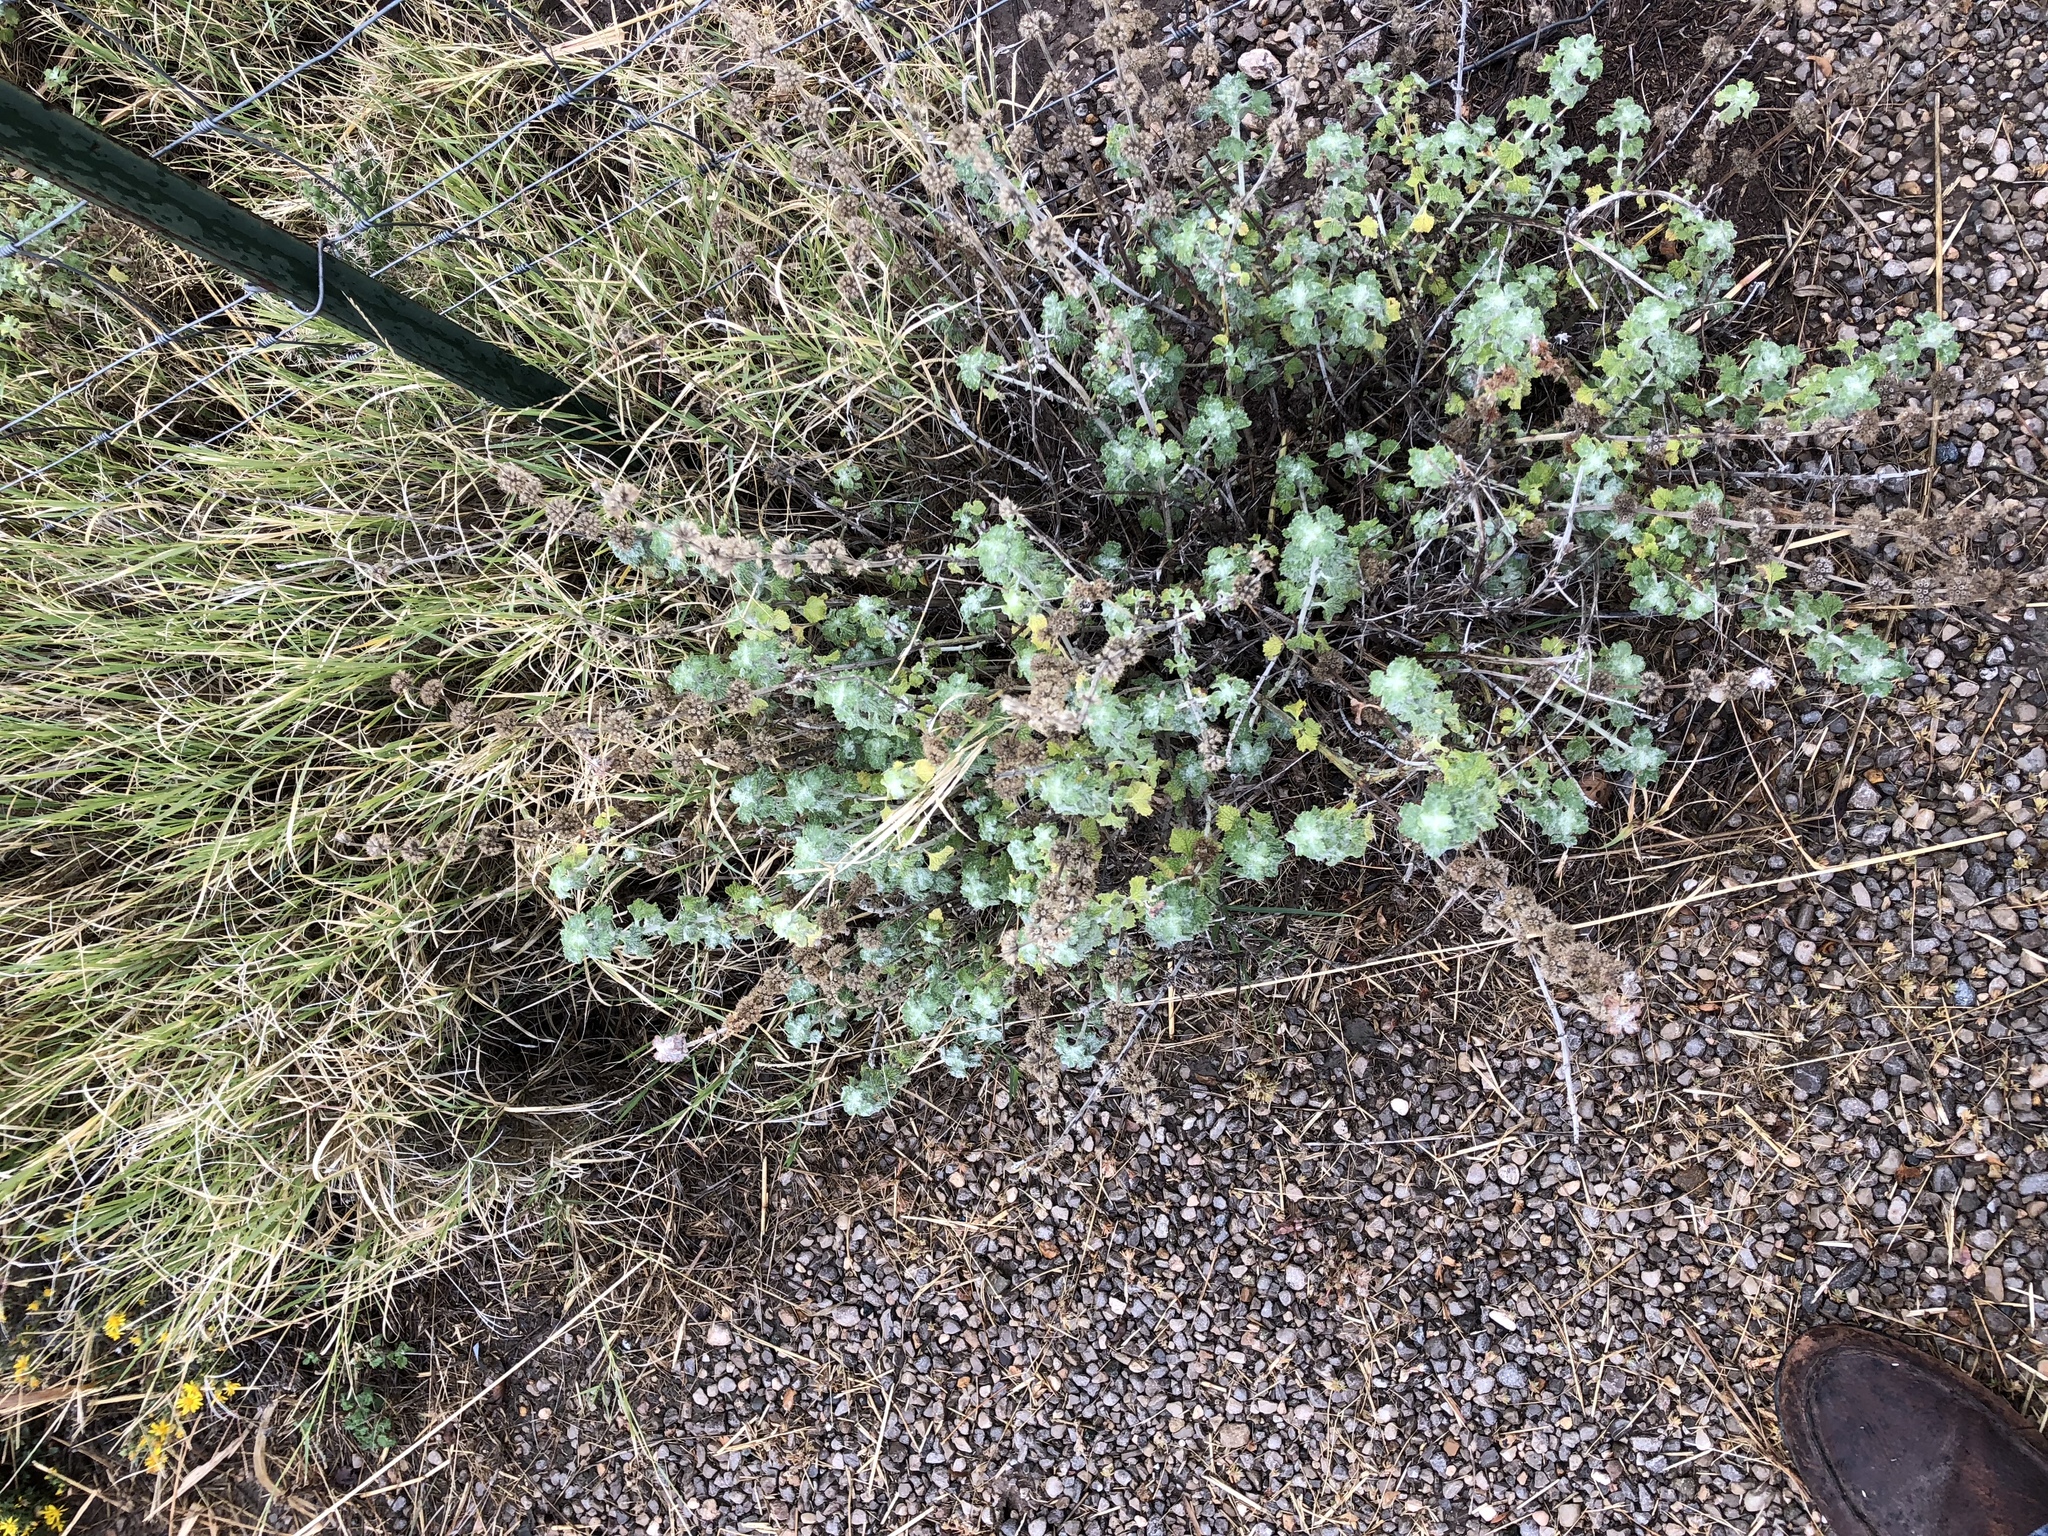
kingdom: Plantae
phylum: Tracheophyta
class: Magnoliopsida
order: Lamiales
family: Lamiaceae
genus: Marrubium
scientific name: Marrubium vulgare
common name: Horehound
